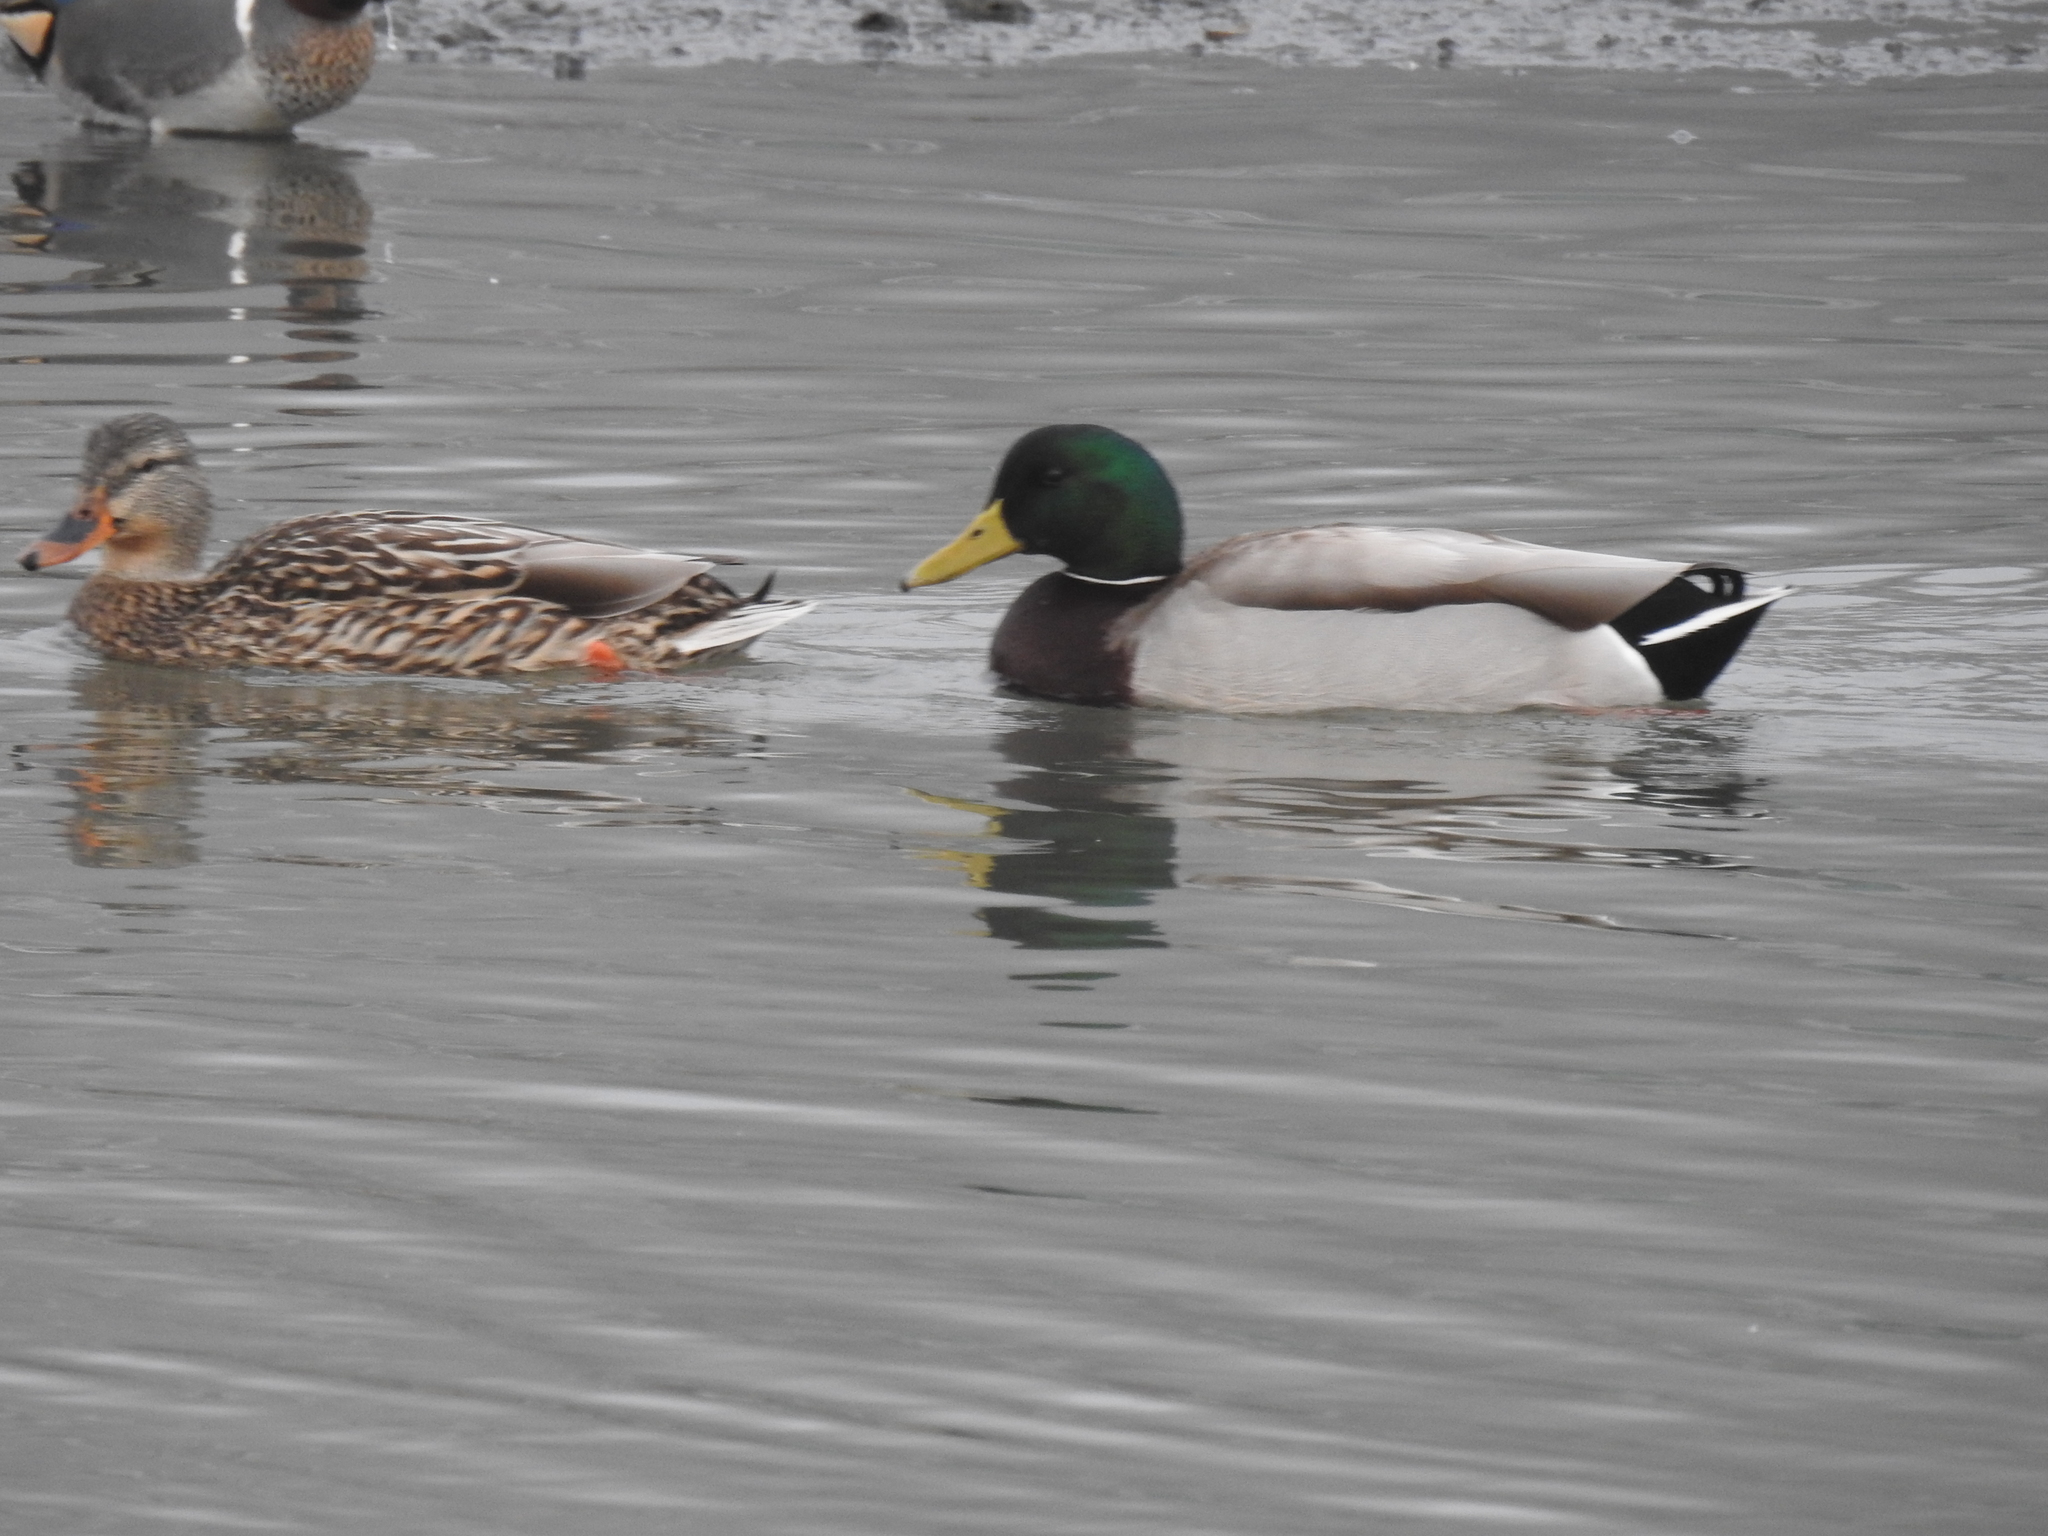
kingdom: Animalia
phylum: Chordata
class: Aves
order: Anseriformes
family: Anatidae
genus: Anas
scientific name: Anas platyrhynchos
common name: Mallard
